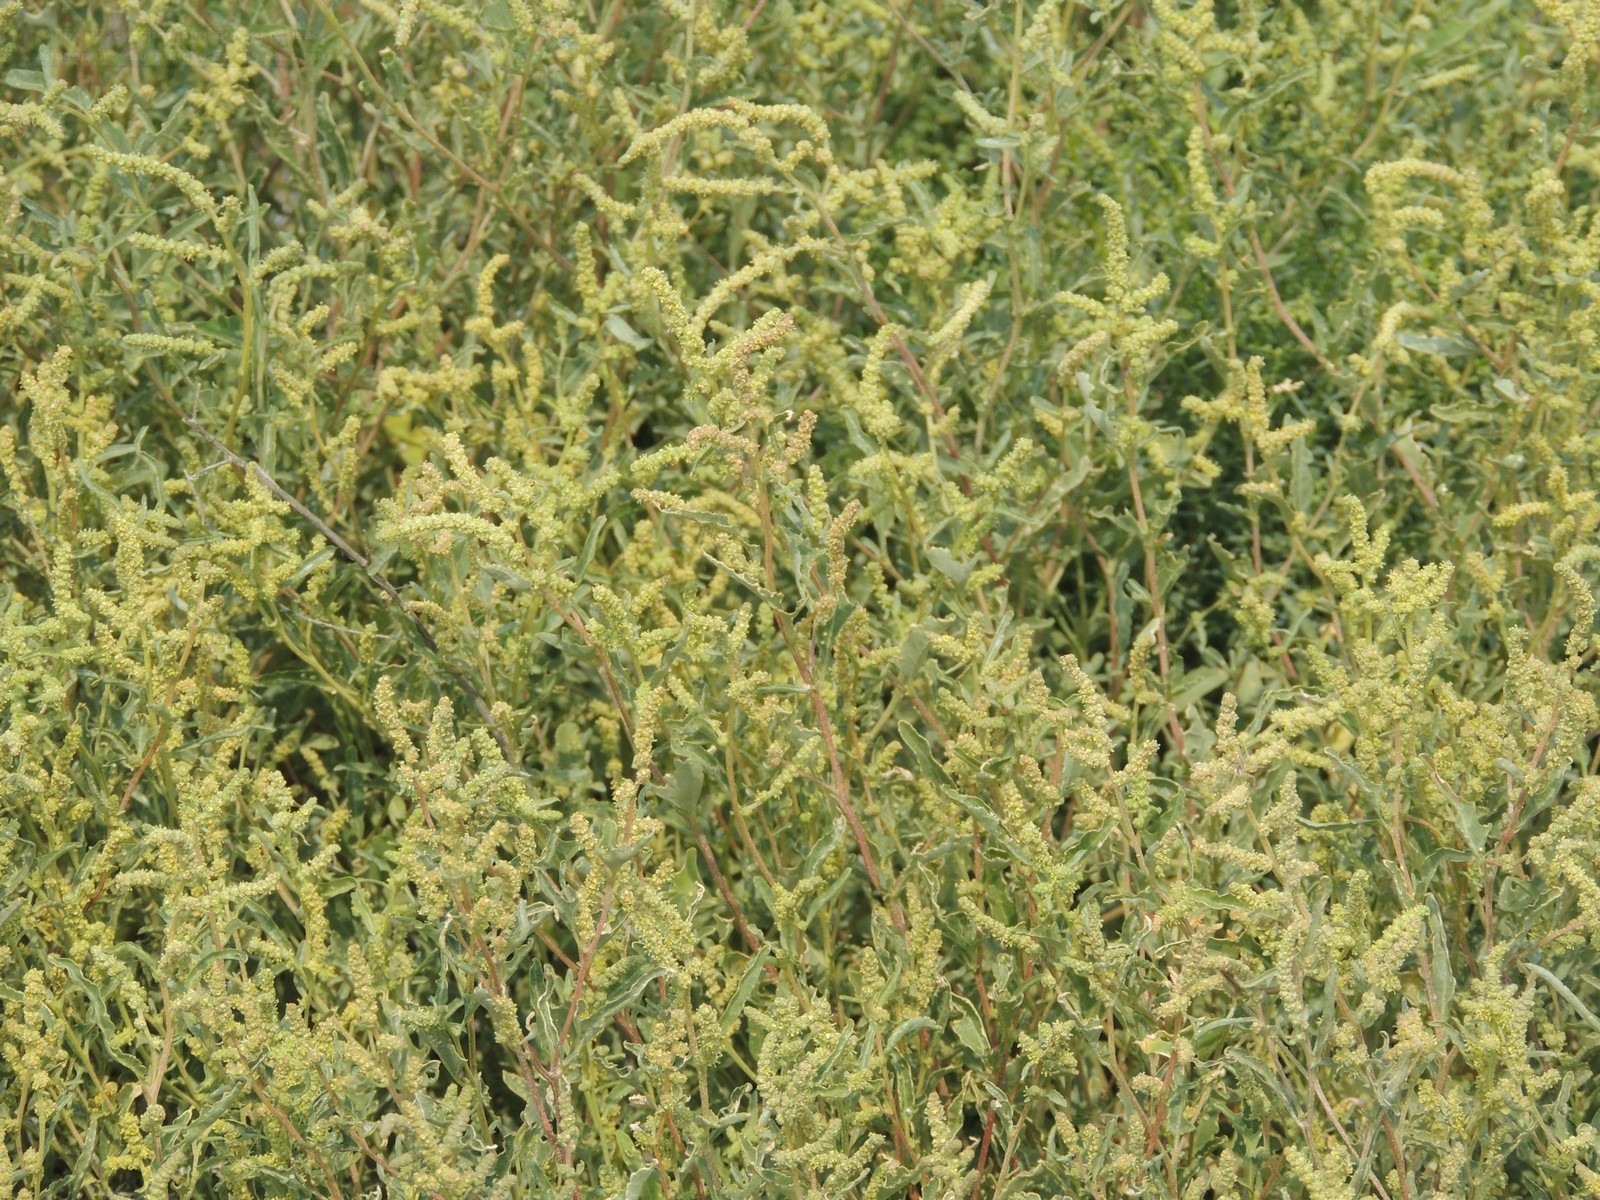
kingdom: Plantae
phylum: Tracheophyta
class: Magnoliopsida
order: Caryophyllales
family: Amaranthaceae
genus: Atriplex
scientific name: Atriplex tatarica
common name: Tatarian orache
